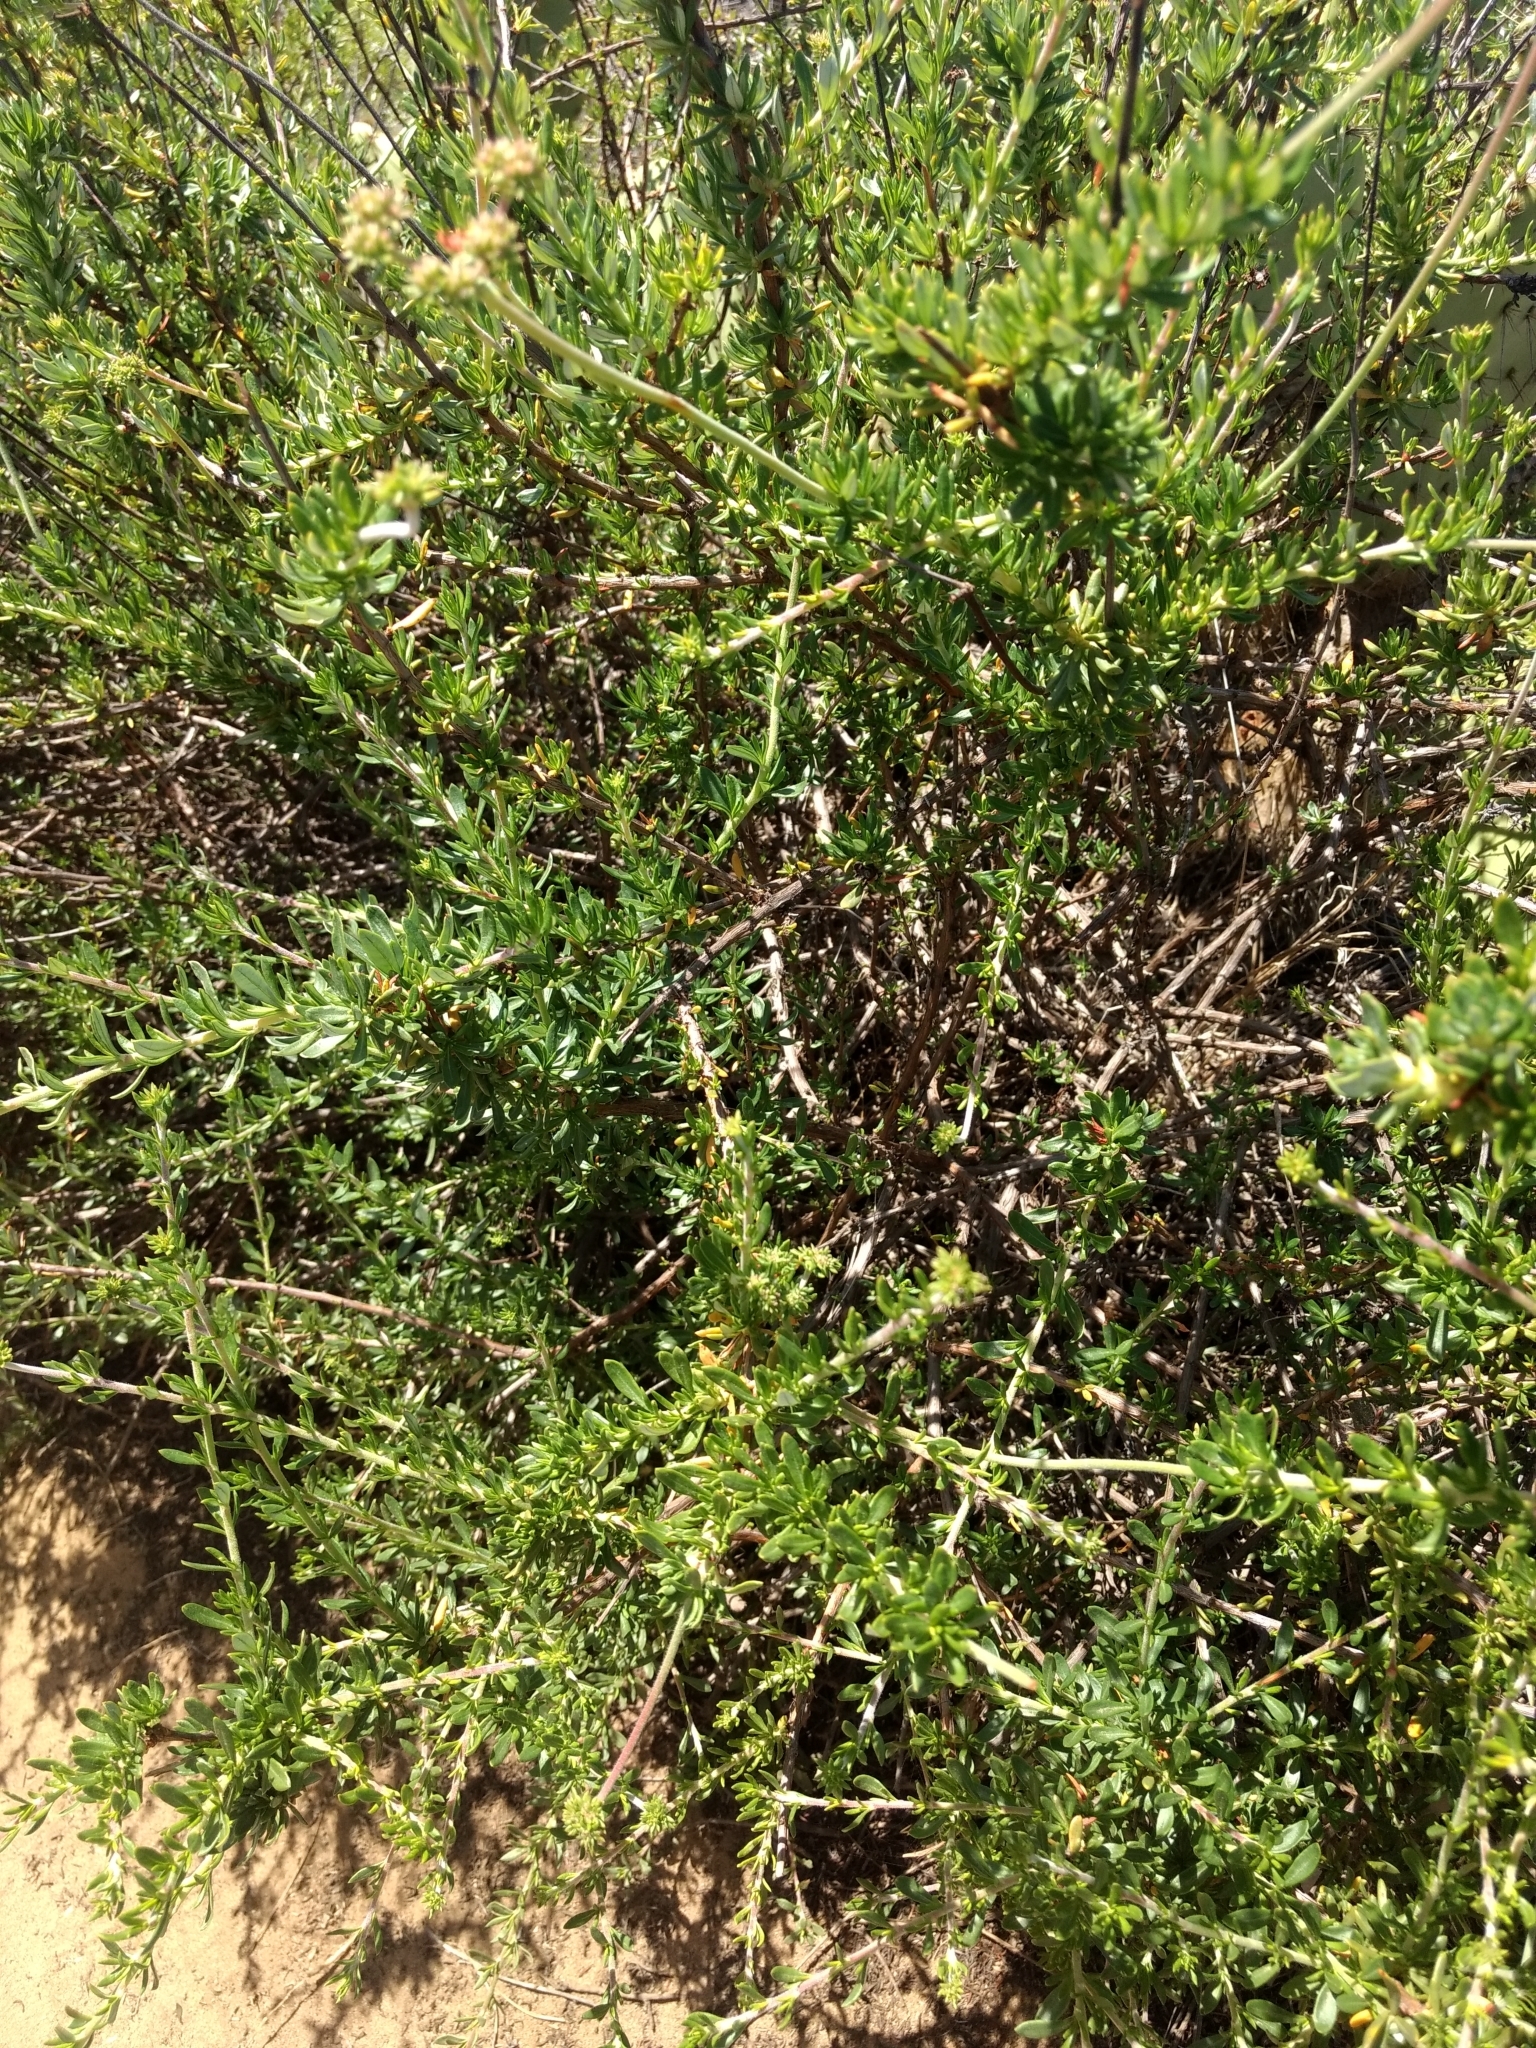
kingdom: Plantae
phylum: Tracheophyta
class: Magnoliopsida
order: Caryophyllales
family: Polygonaceae
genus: Eriogonum
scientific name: Eriogonum fasciculatum
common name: California wild buckwheat
